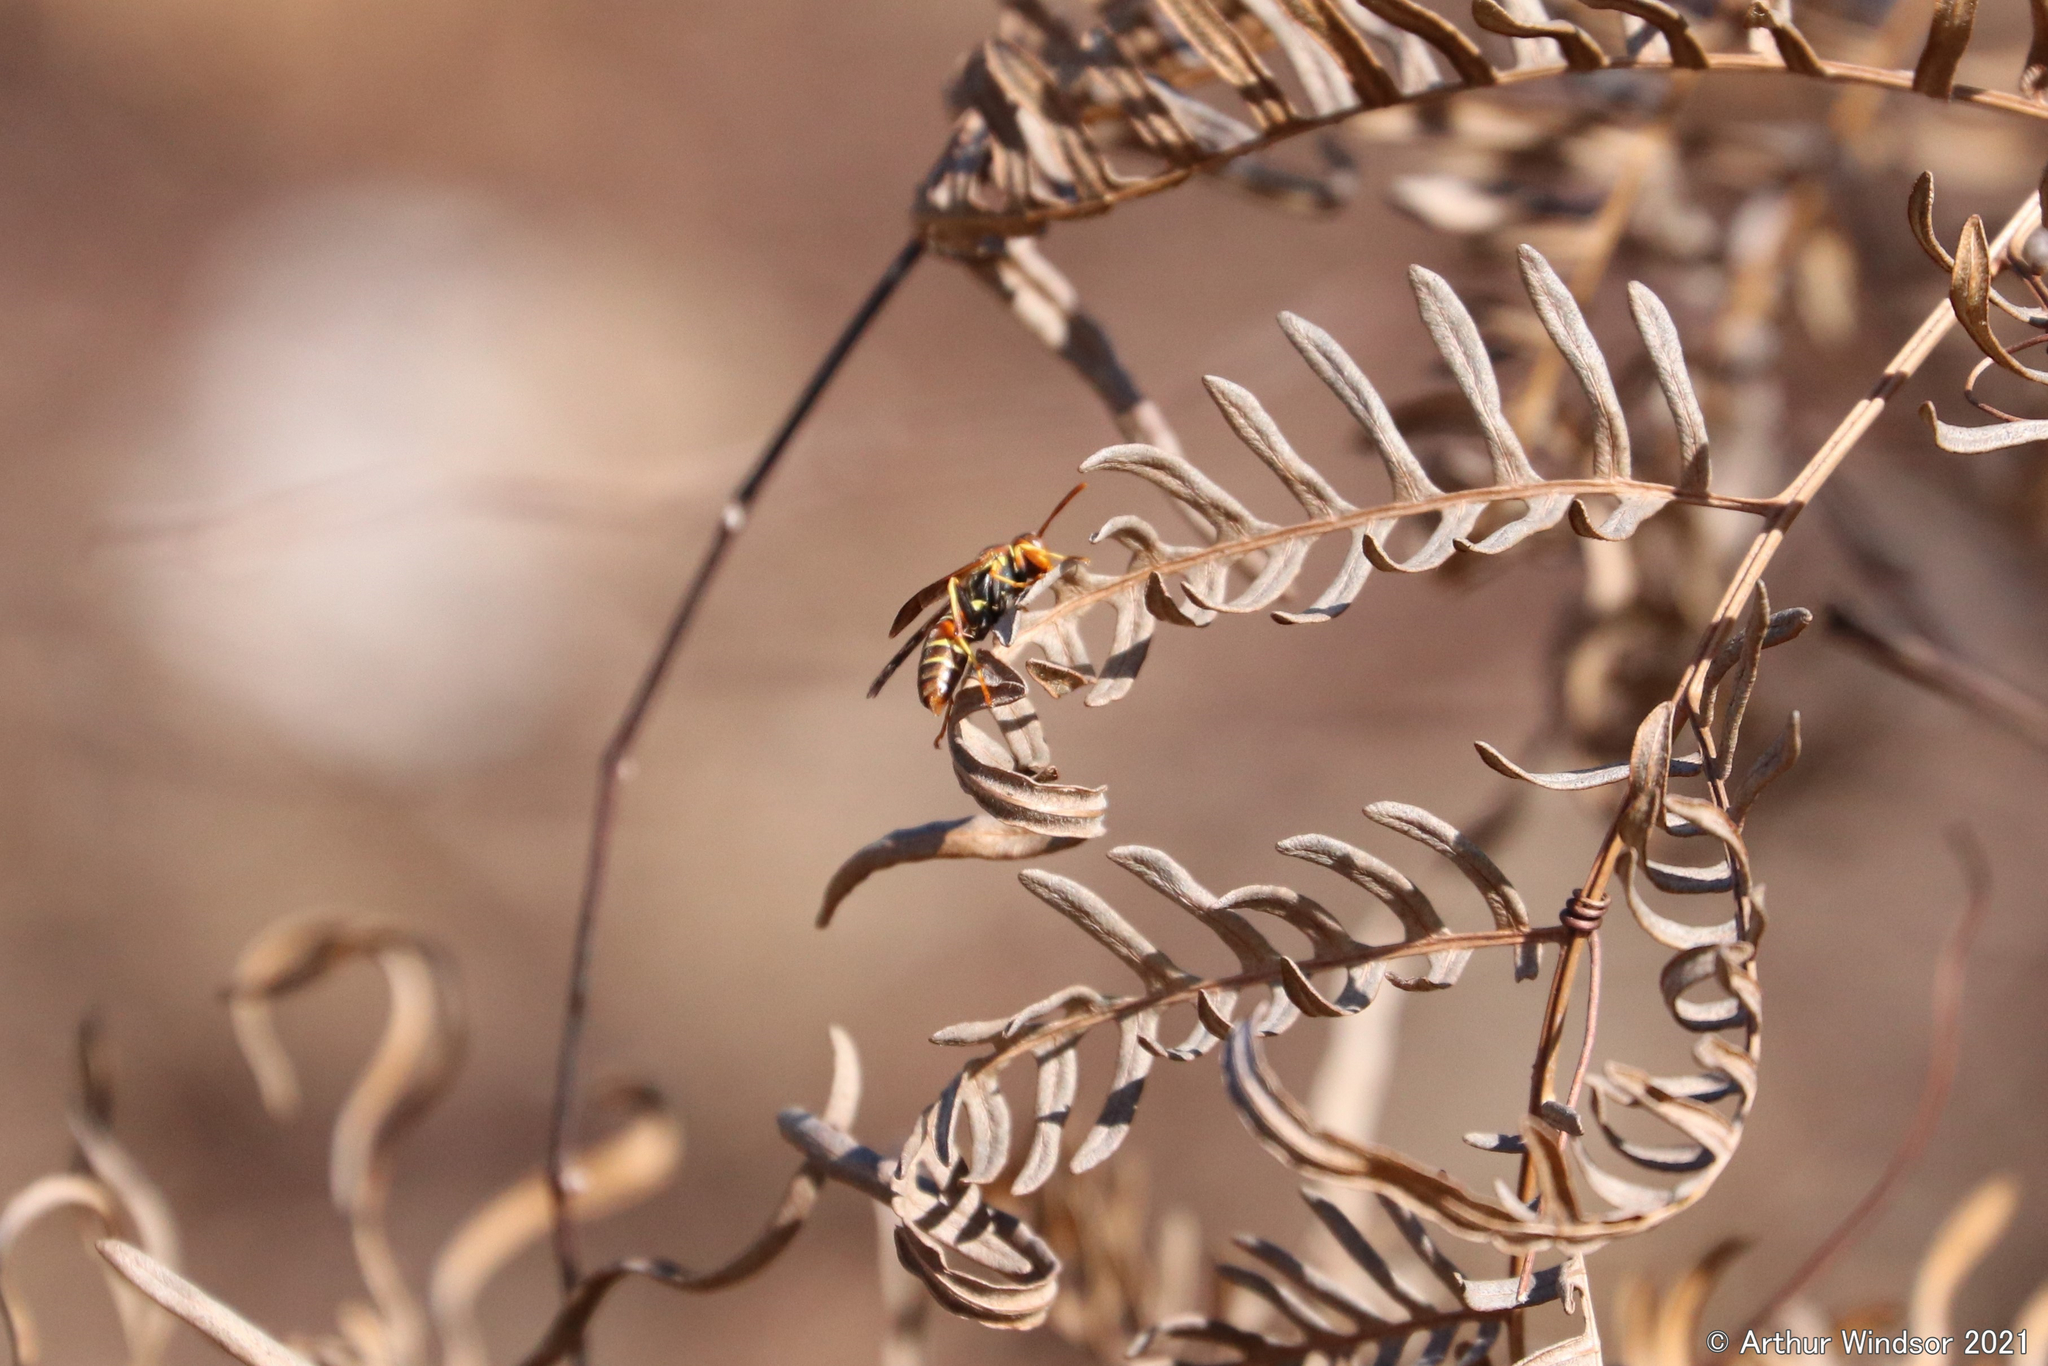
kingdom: Animalia
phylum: Arthropoda
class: Insecta
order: Hymenoptera
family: Eumenidae
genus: Polistes
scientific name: Polistes dorsalis
